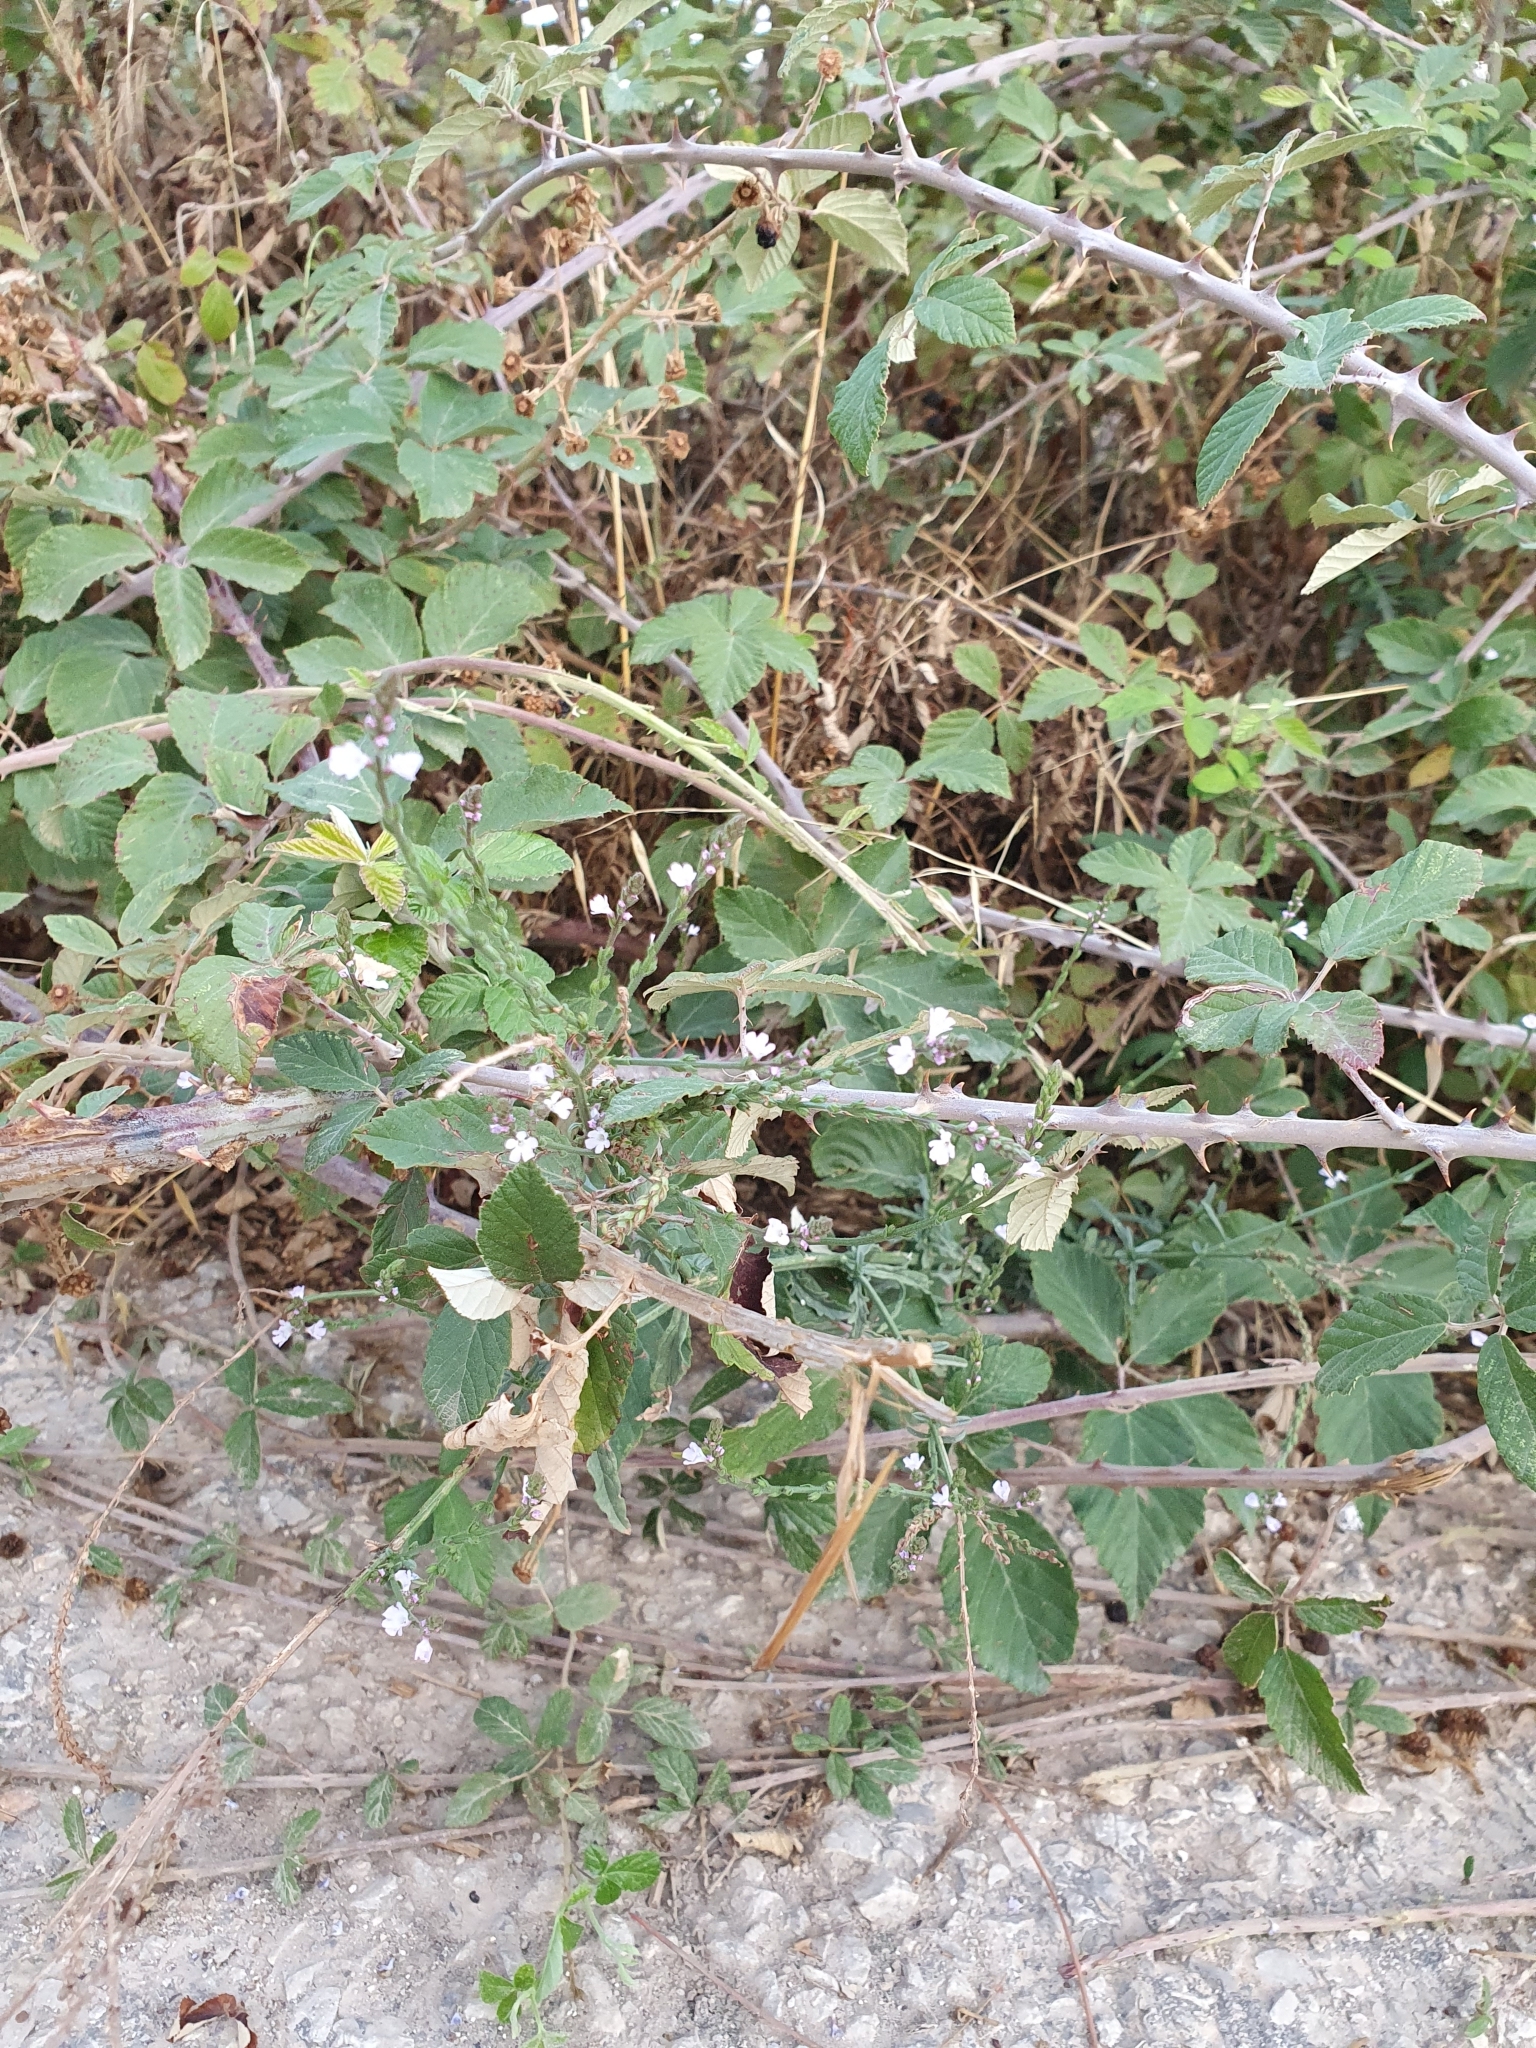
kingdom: Plantae
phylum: Tracheophyta
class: Magnoliopsida
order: Lamiales
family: Verbenaceae
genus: Verbena
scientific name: Verbena officinalis
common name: Vervain
